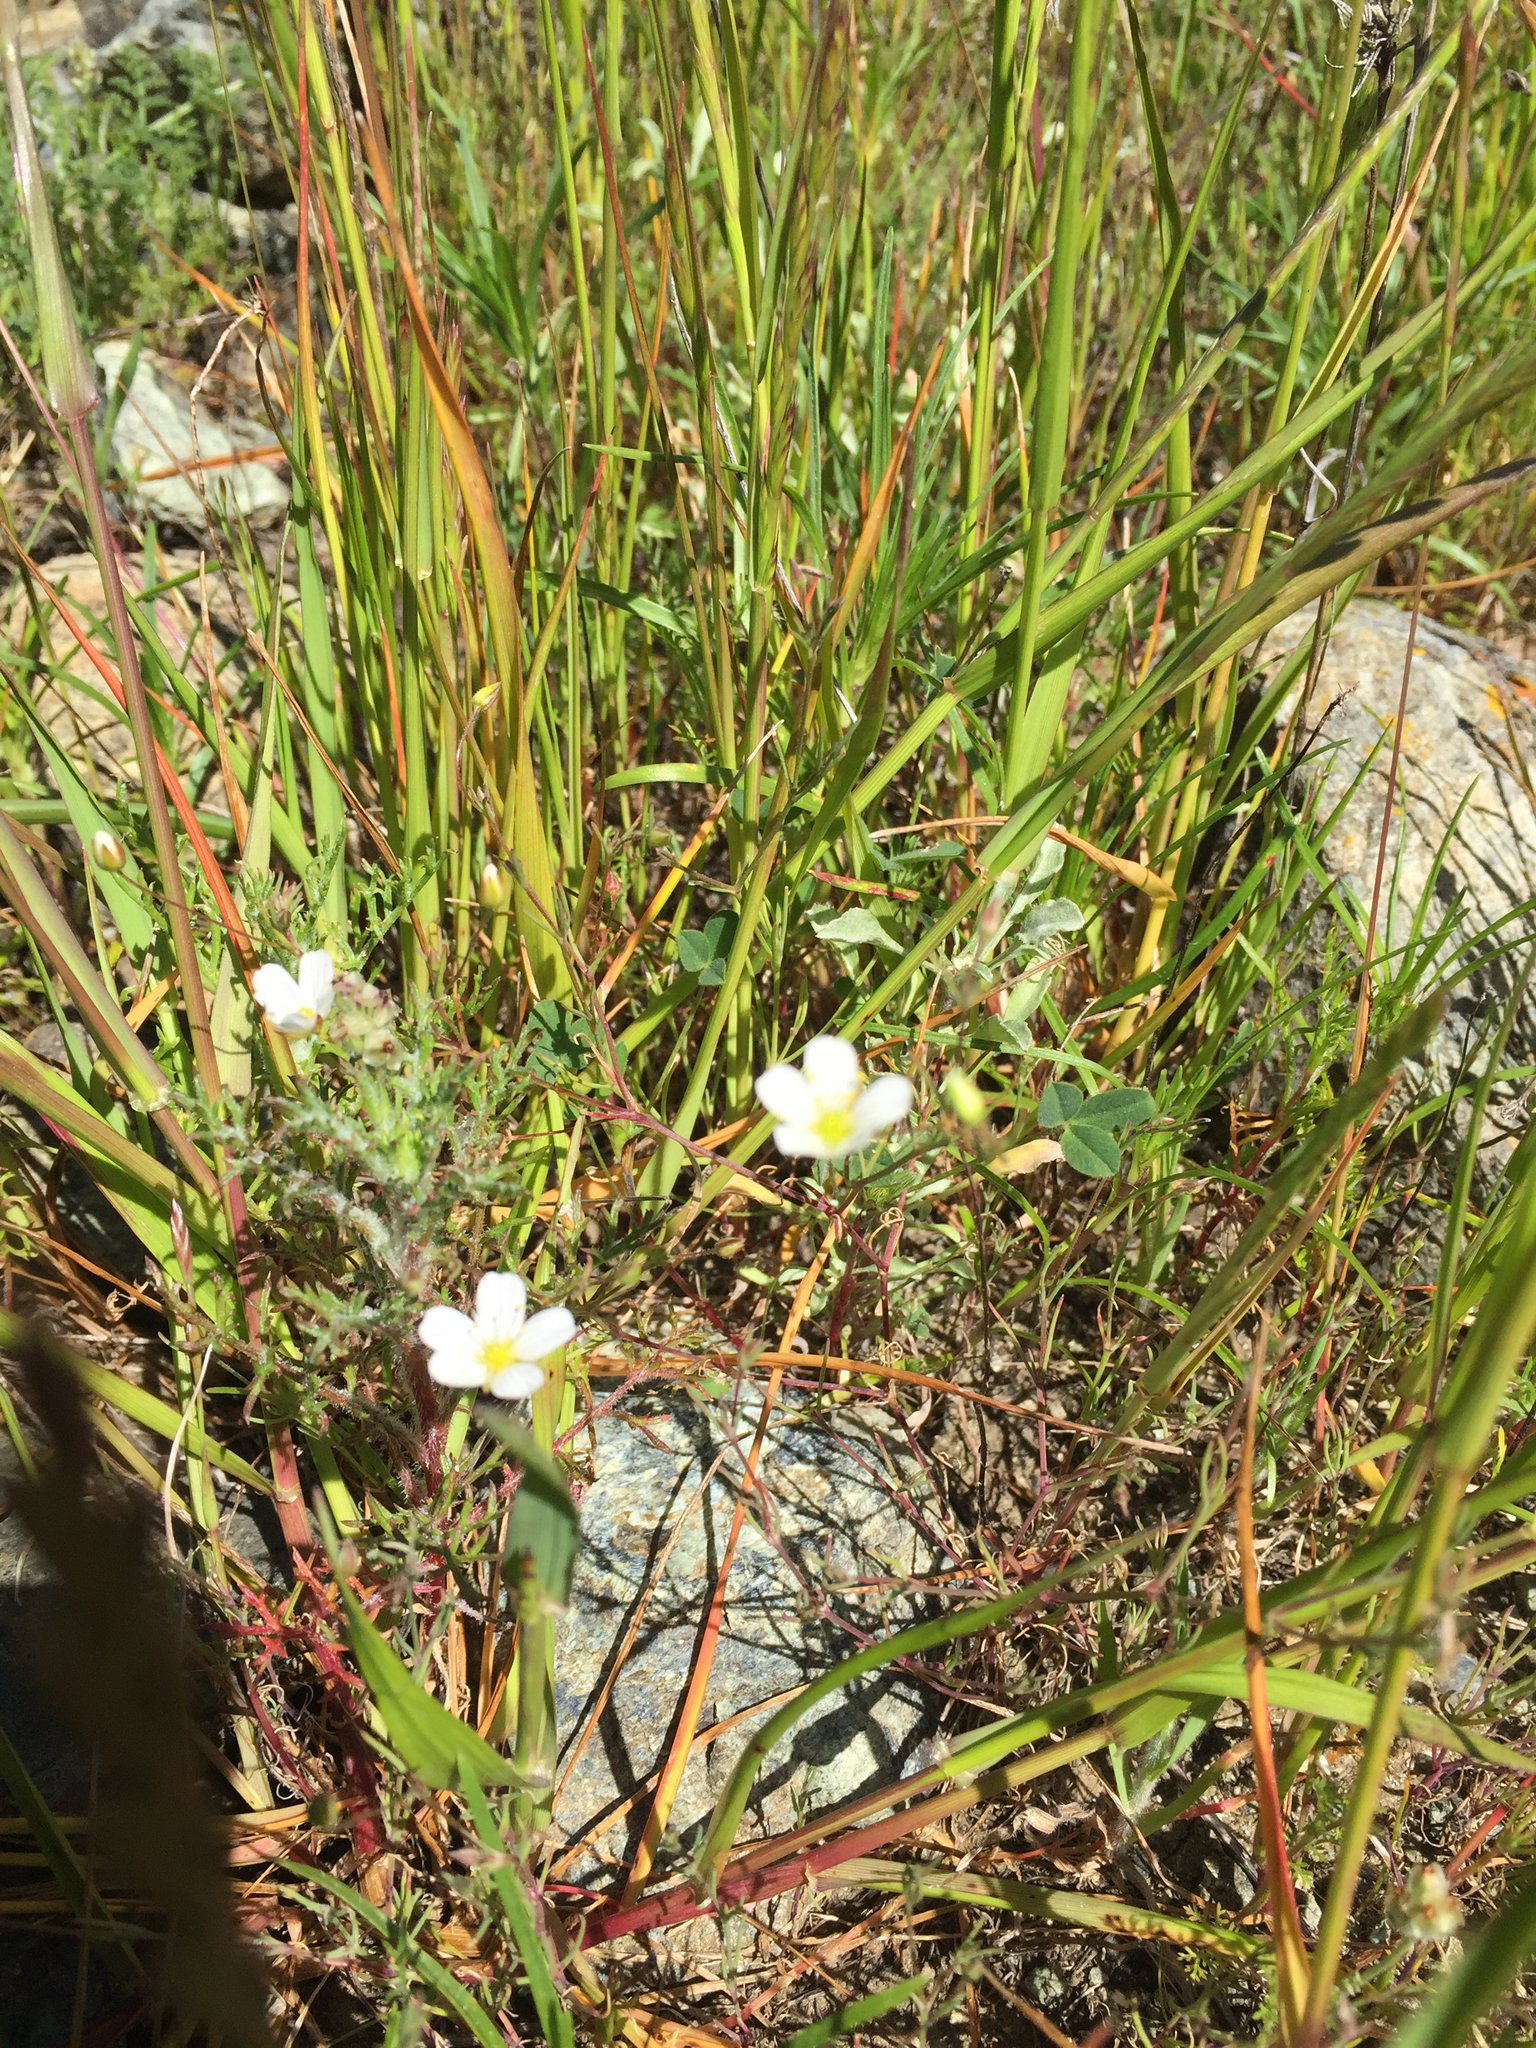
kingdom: Plantae
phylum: Tracheophyta
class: Magnoliopsida
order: Caryophyllales
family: Caryophyllaceae
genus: Sabulina
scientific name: Sabulina douglasii
